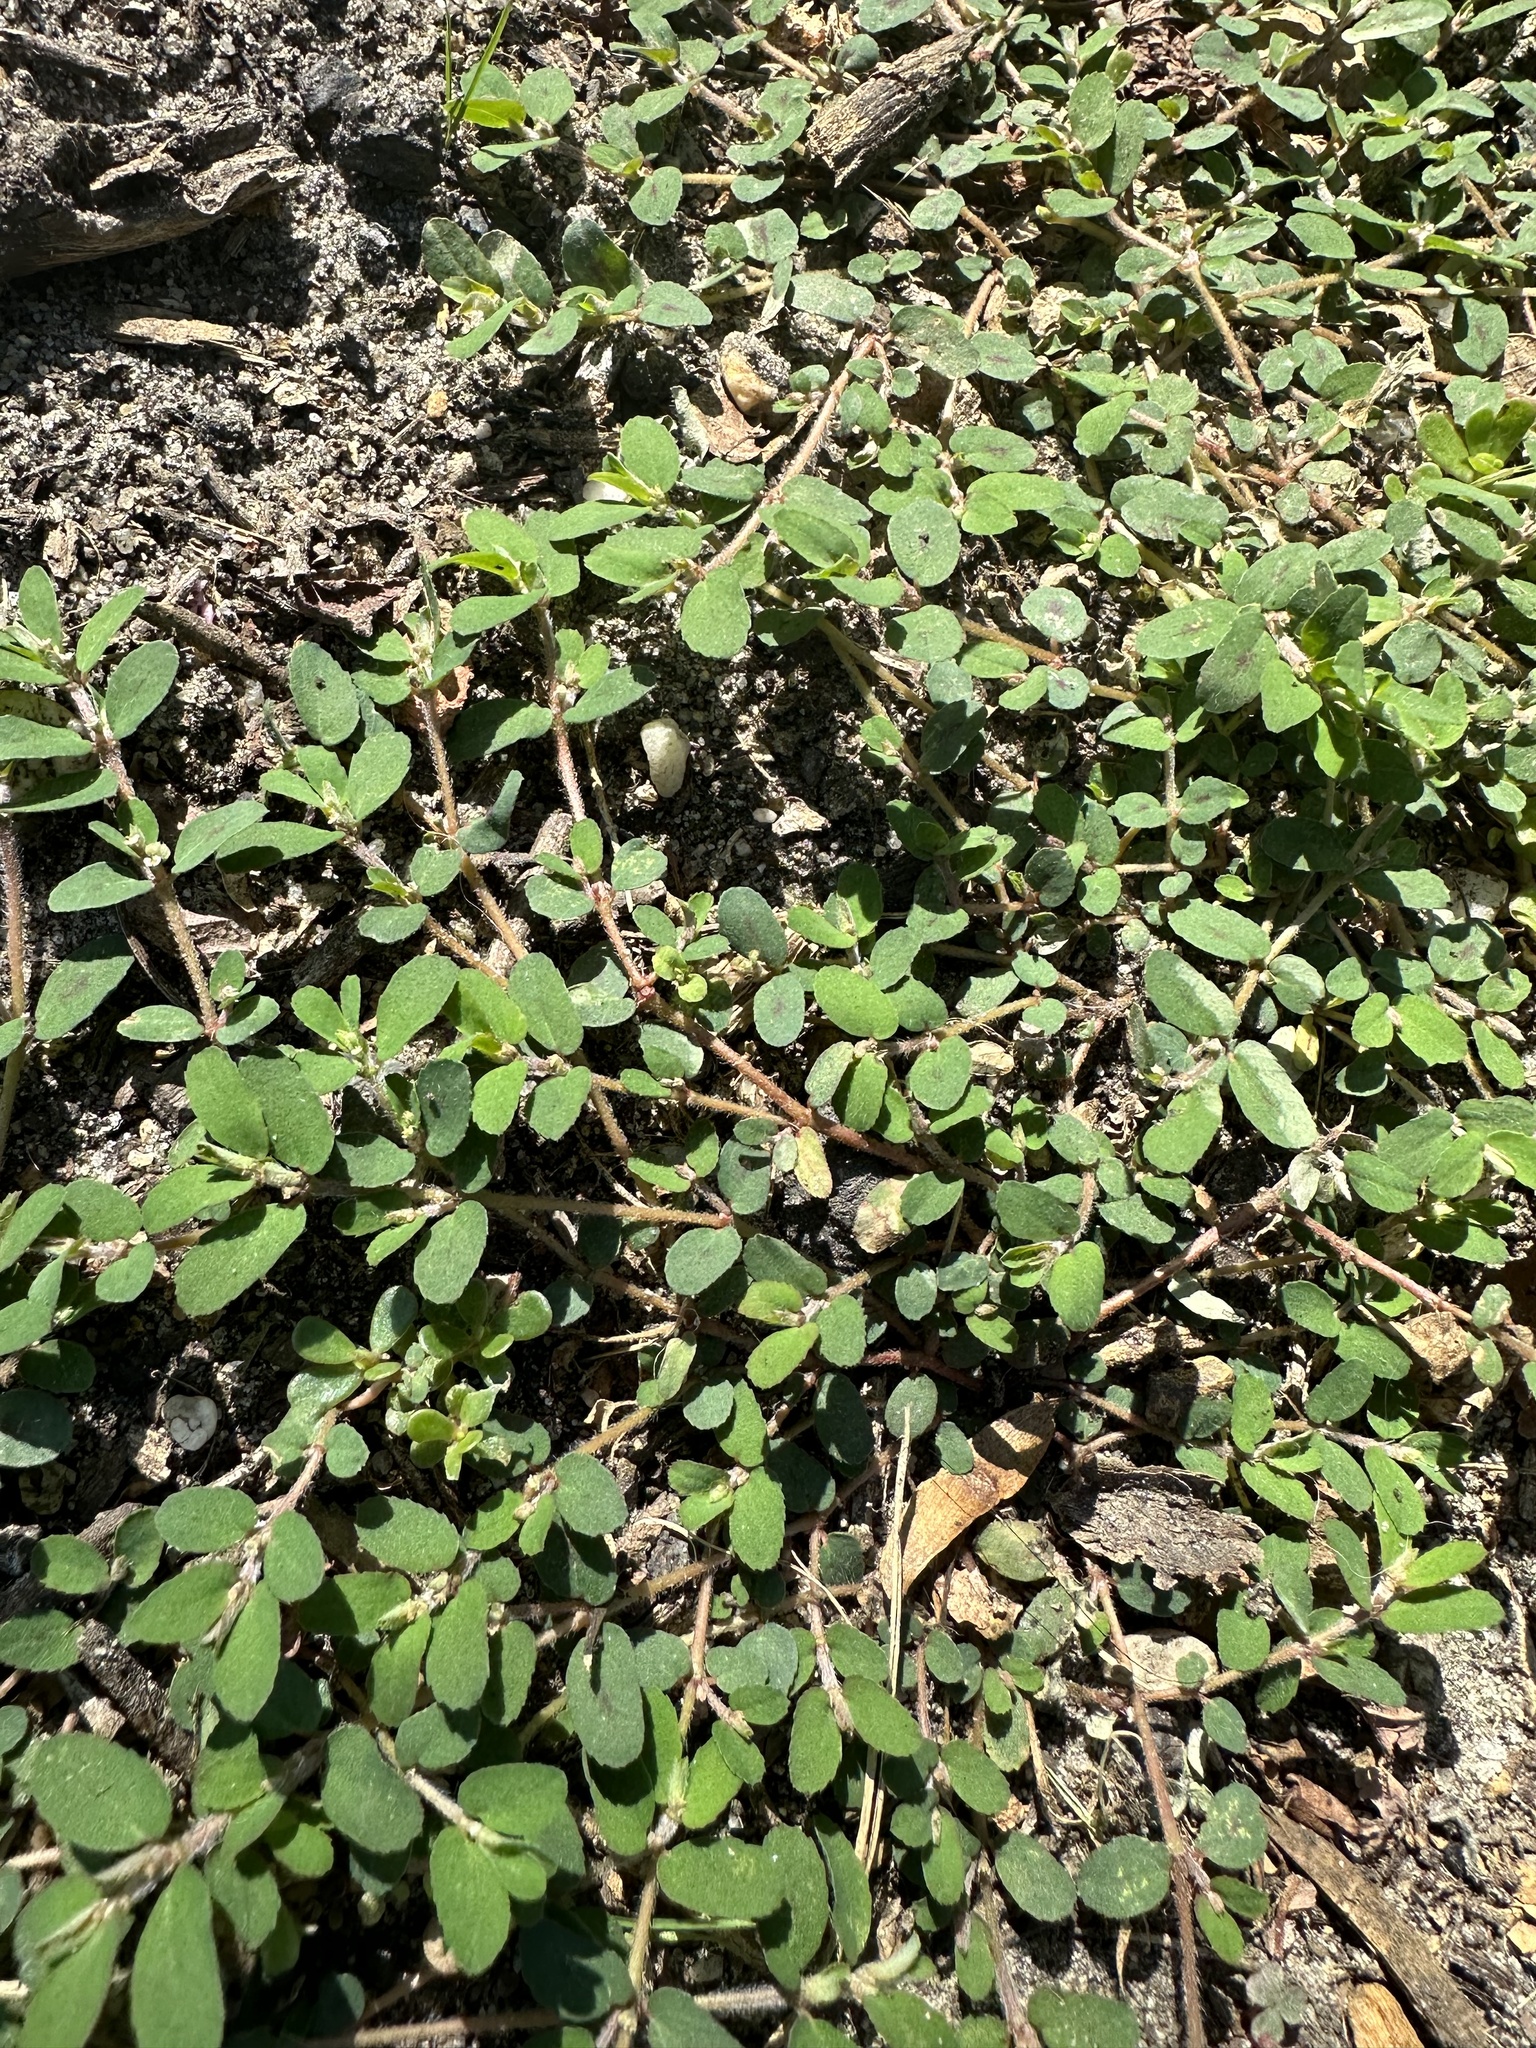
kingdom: Plantae
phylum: Tracheophyta
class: Magnoliopsida
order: Malpighiales
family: Euphorbiaceae
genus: Euphorbia
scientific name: Euphorbia maculata
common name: Spotted spurge
